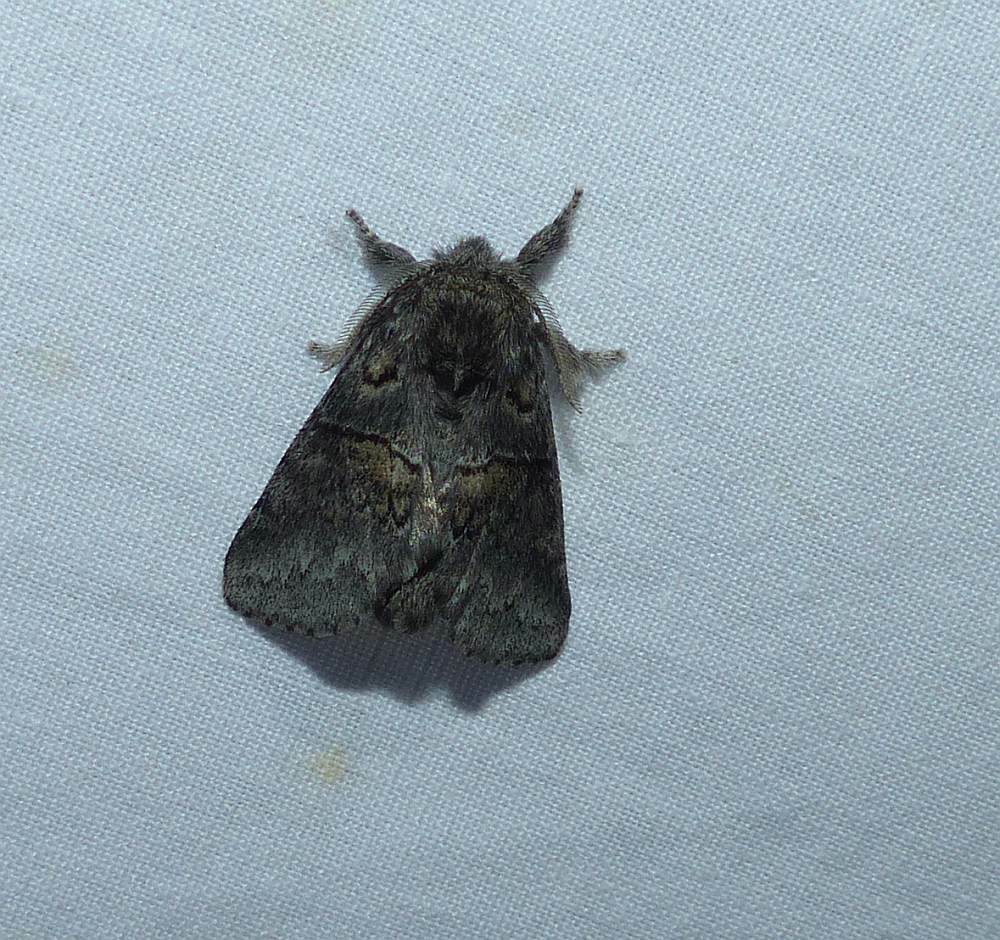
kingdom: Animalia
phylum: Arthropoda
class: Insecta
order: Lepidoptera
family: Notodontidae
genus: Gluphisia
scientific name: Gluphisia septentrionis
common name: Common gluphisia
